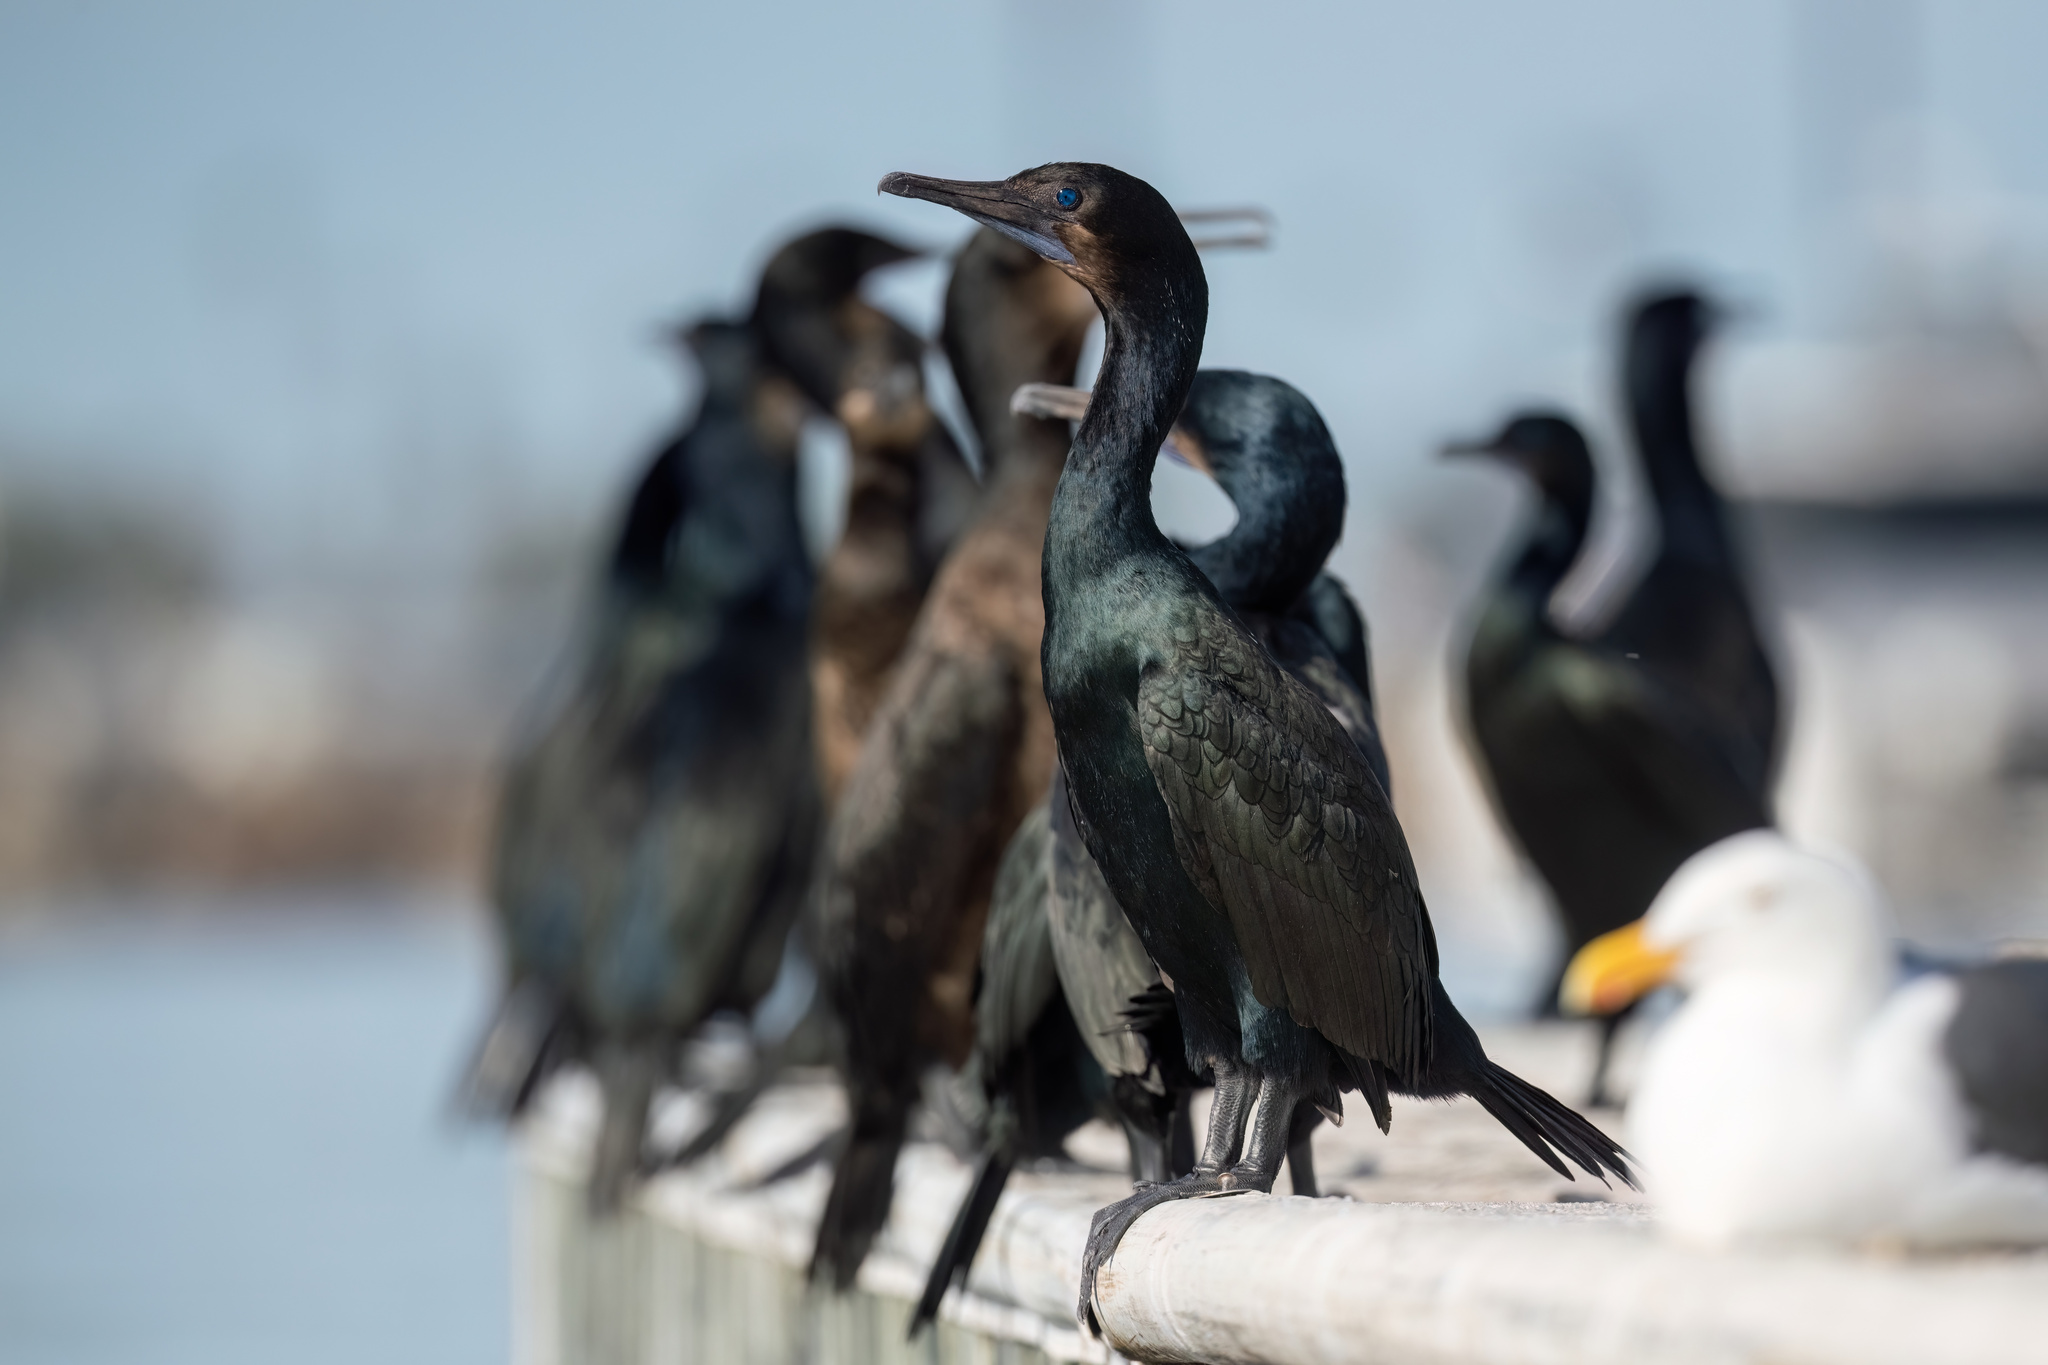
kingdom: Animalia
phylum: Chordata
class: Aves
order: Suliformes
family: Phalacrocoracidae
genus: Urile
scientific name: Urile penicillatus
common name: Brandt's cormorant
